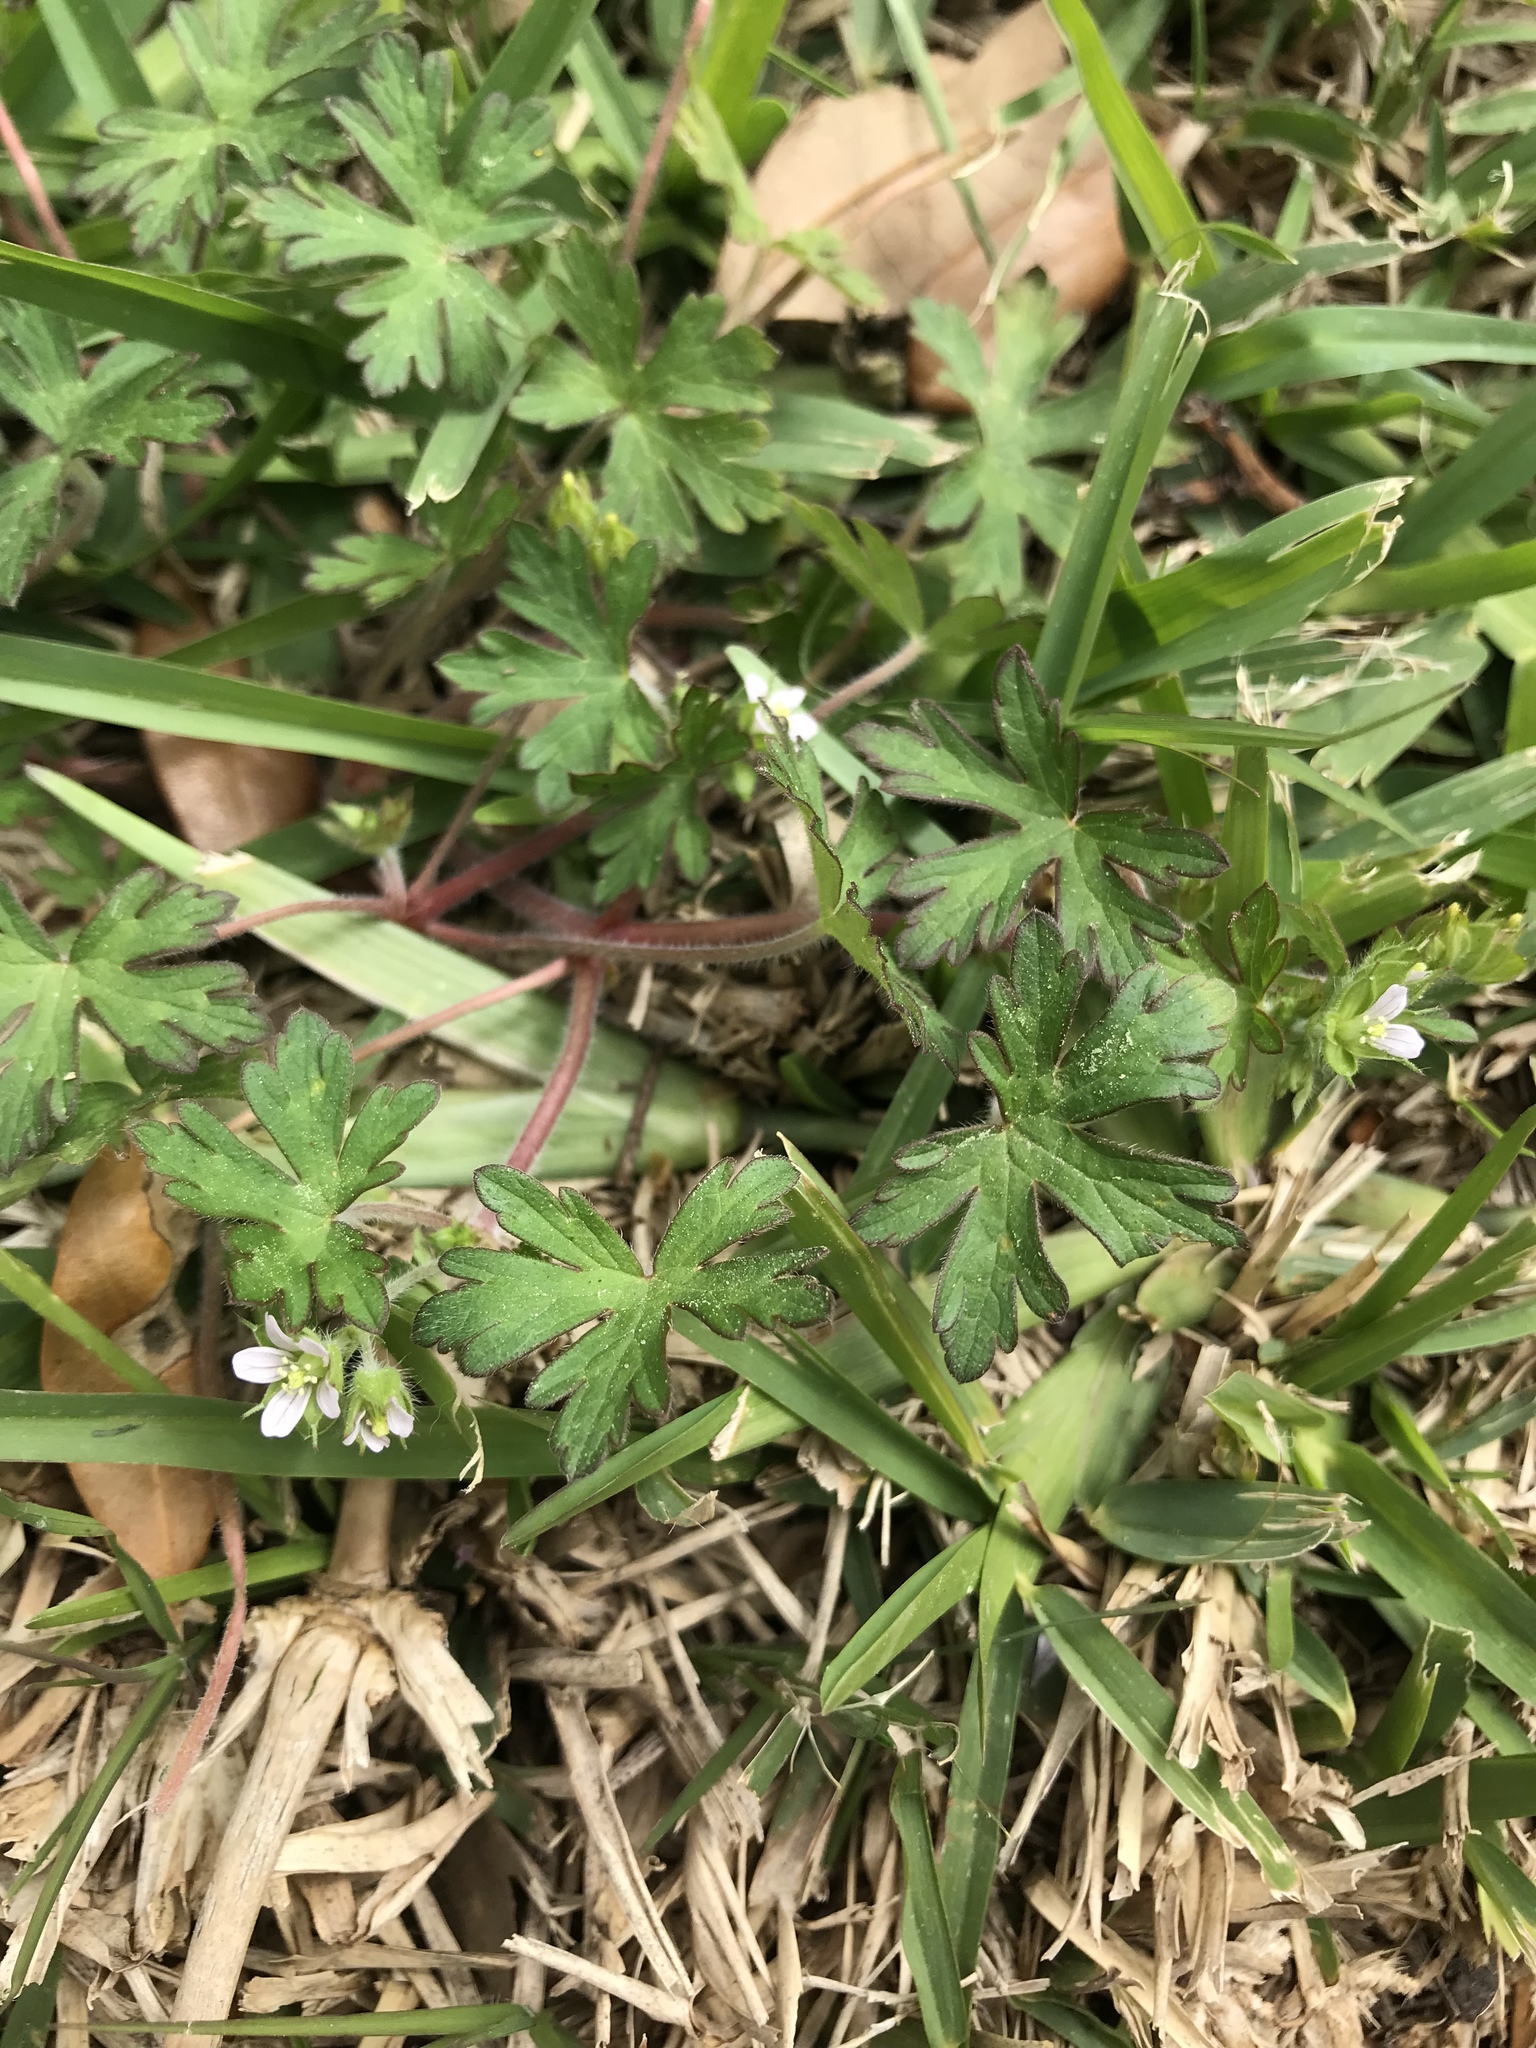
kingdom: Plantae
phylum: Tracheophyta
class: Magnoliopsida
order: Geraniales
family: Geraniaceae
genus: Geranium
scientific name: Geranium carolinianum
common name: Carolina crane's-bill
